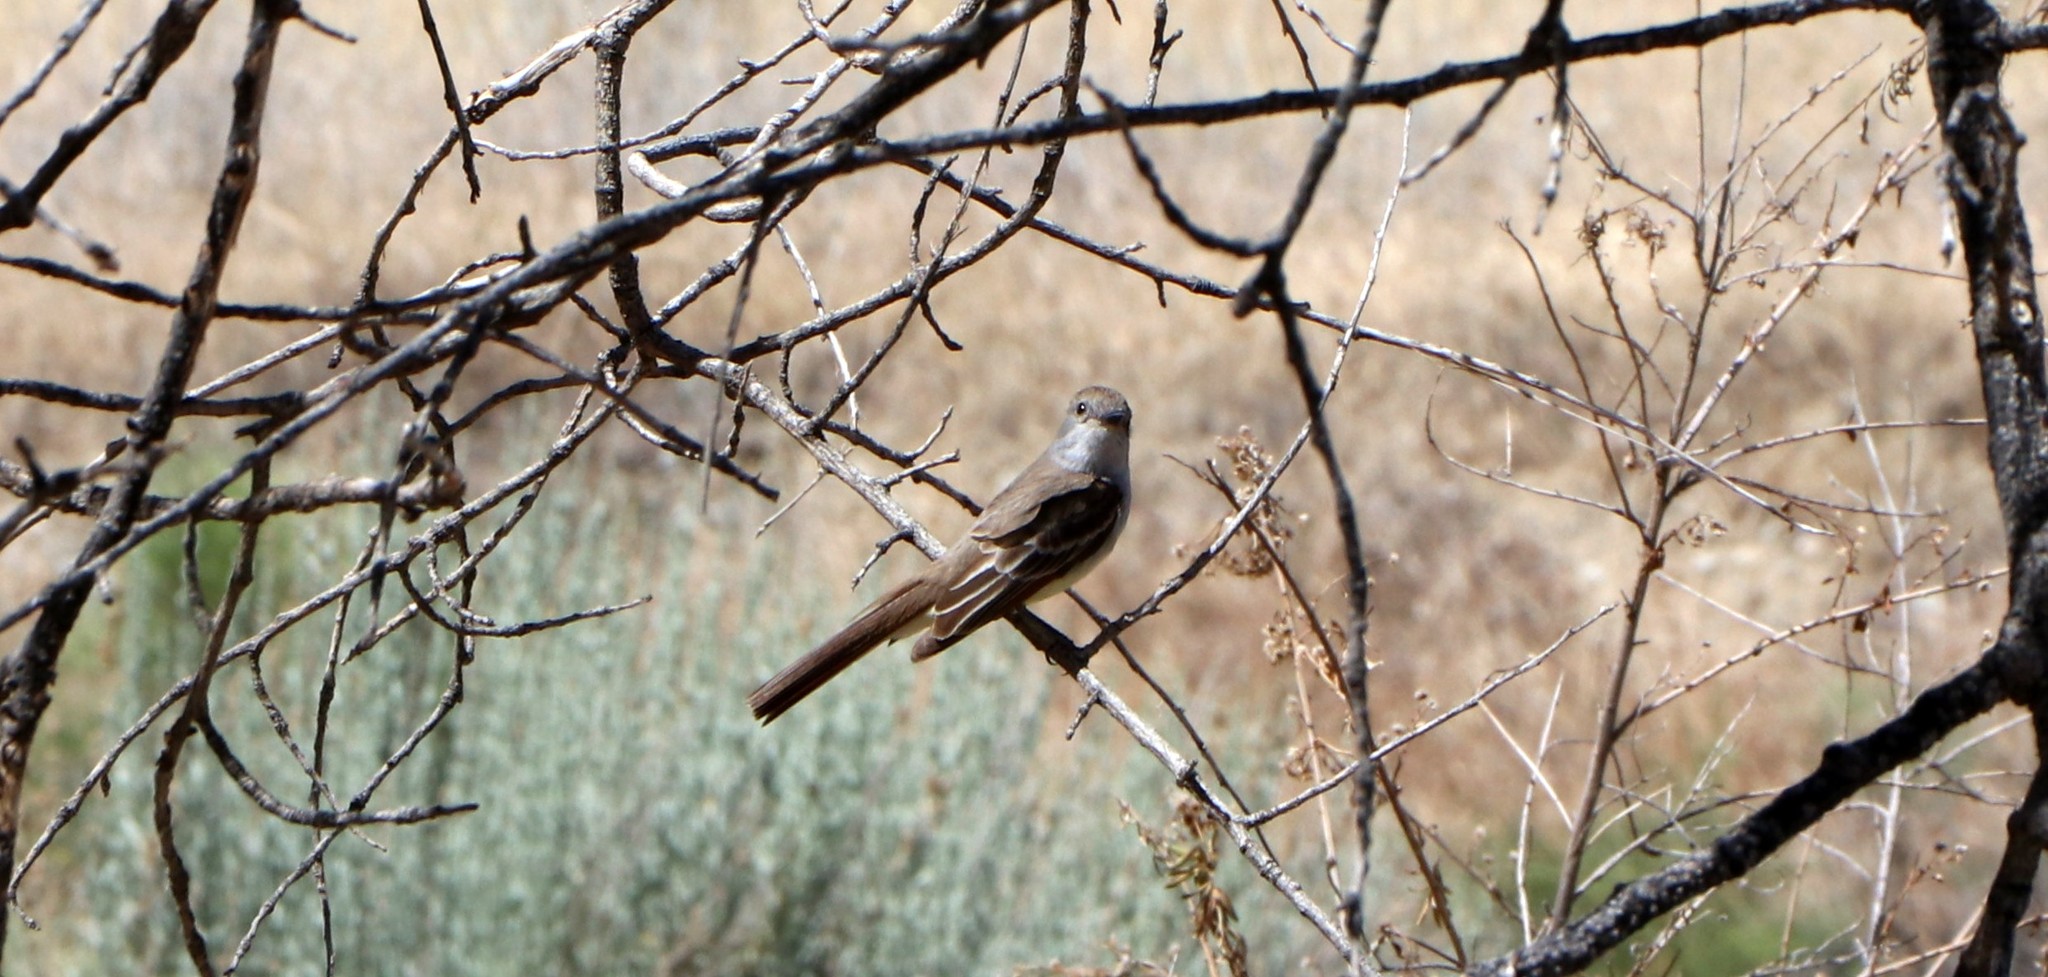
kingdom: Animalia
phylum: Chordata
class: Aves
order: Passeriformes
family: Tyrannidae
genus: Myiarchus
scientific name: Myiarchus cinerascens
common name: Ash-throated flycatcher
